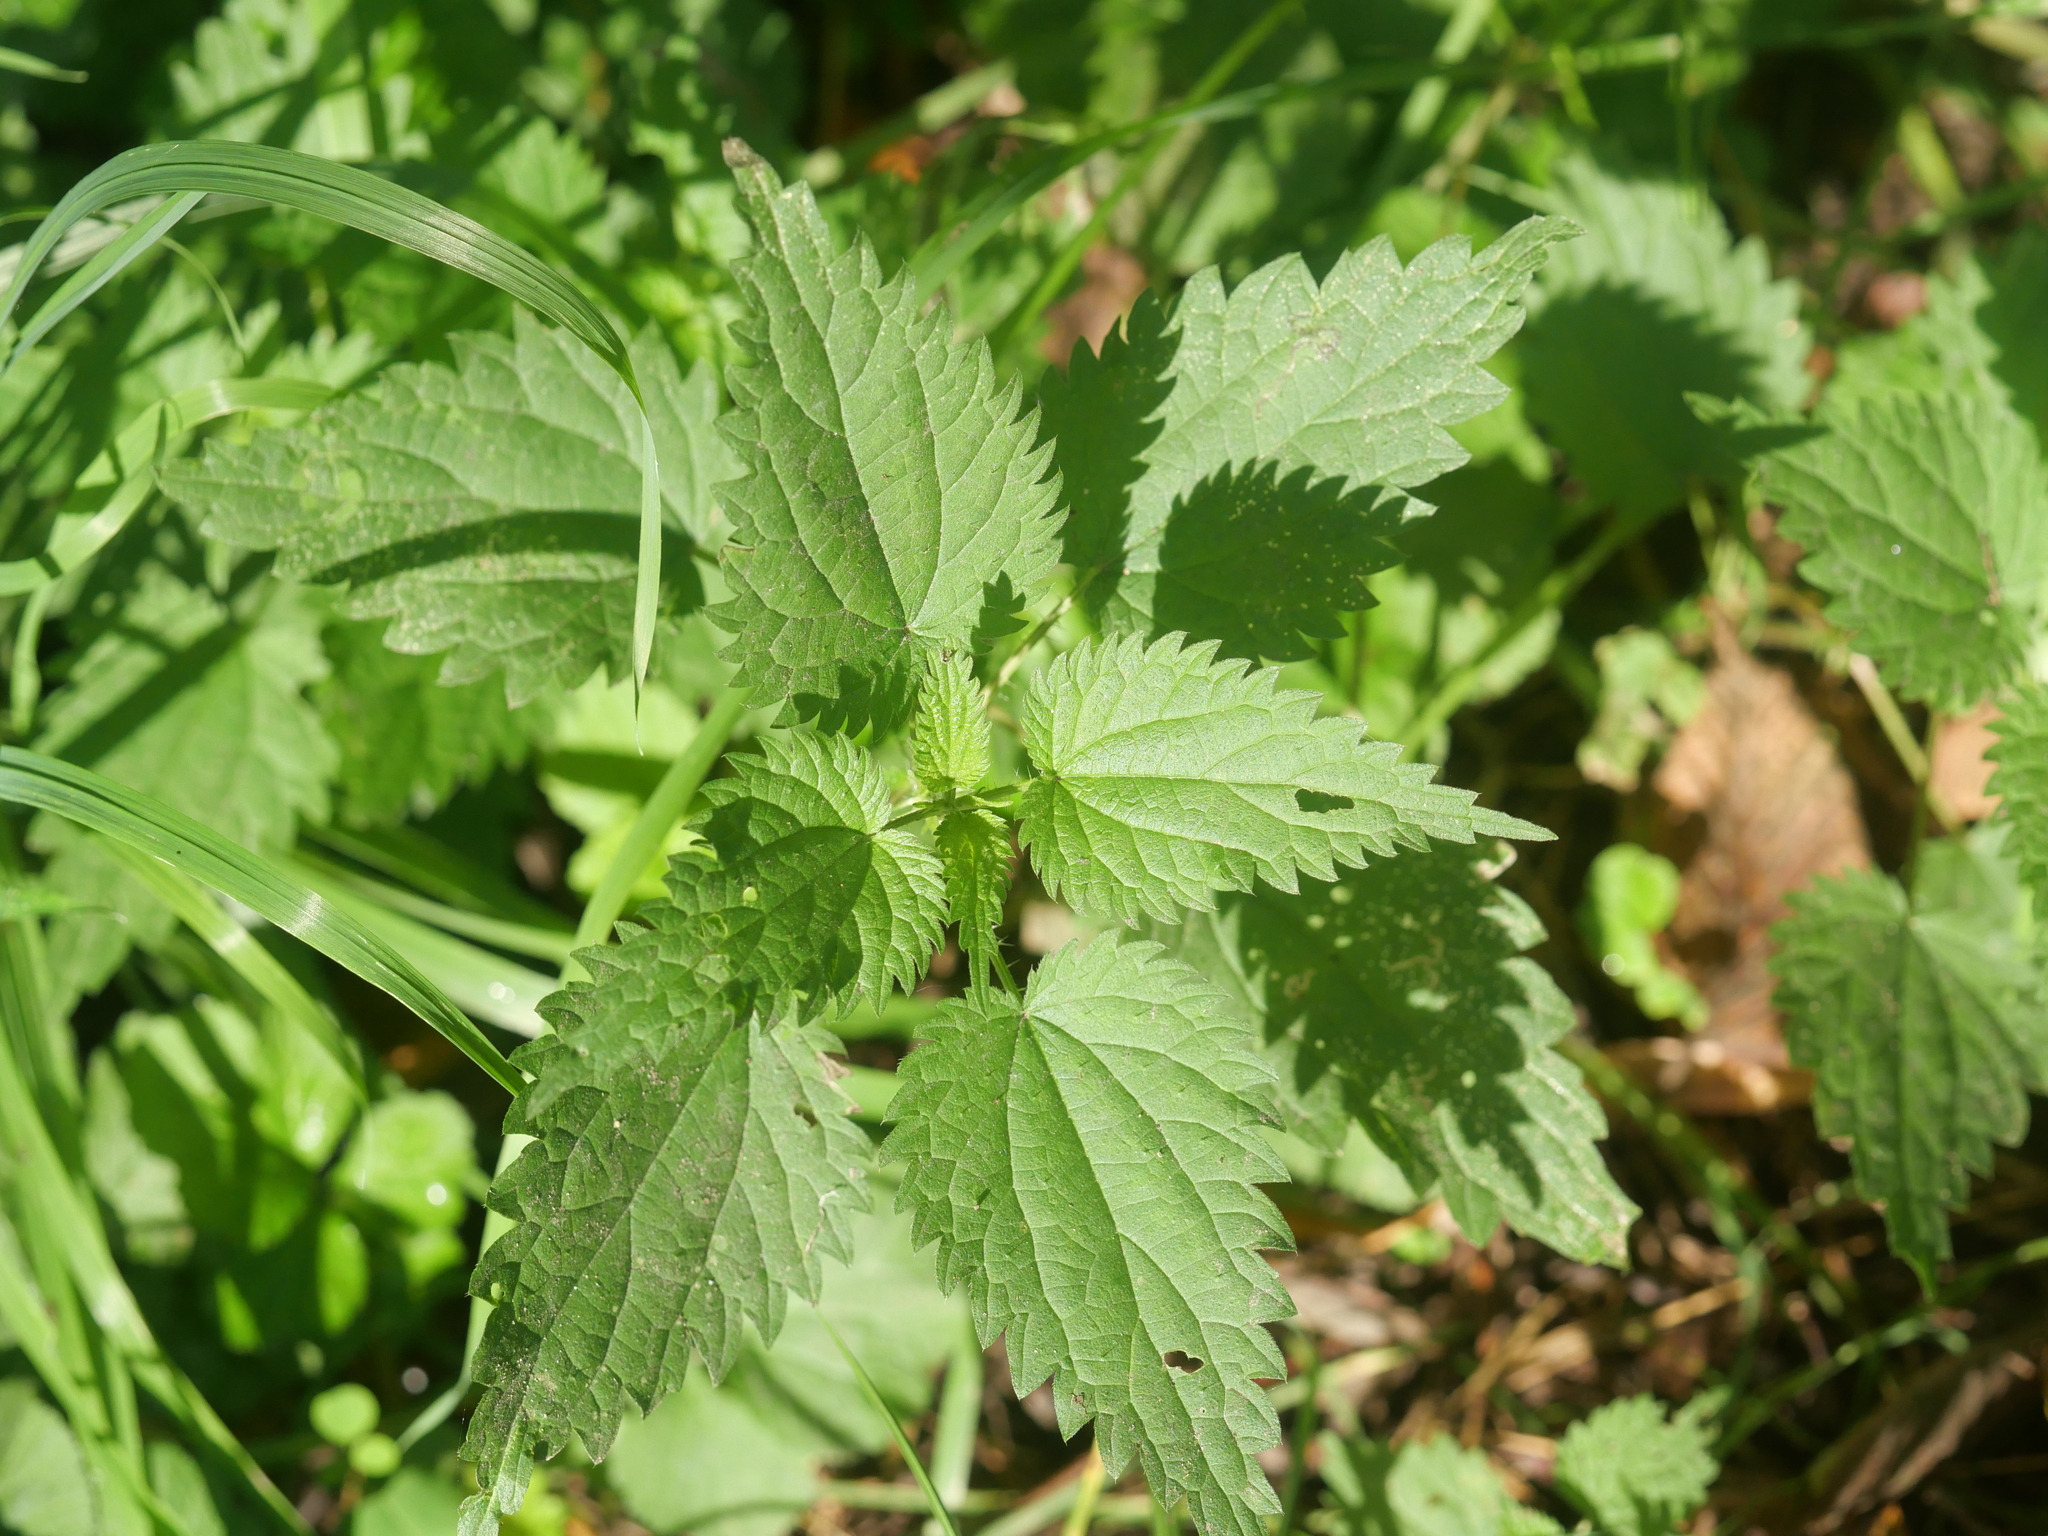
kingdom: Plantae
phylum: Tracheophyta
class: Magnoliopsida
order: Rosales
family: Urticaceae
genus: Urtica
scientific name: Urtica dioica
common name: Common nettle
